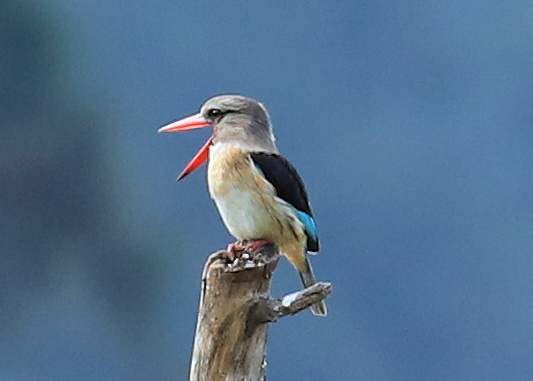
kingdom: Animalia
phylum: Chordata
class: Aves
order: Coraciiformes
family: Alcedinidae
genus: Halcyon
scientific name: Halcyon albiventris
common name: Brown-hooded kingfisher
